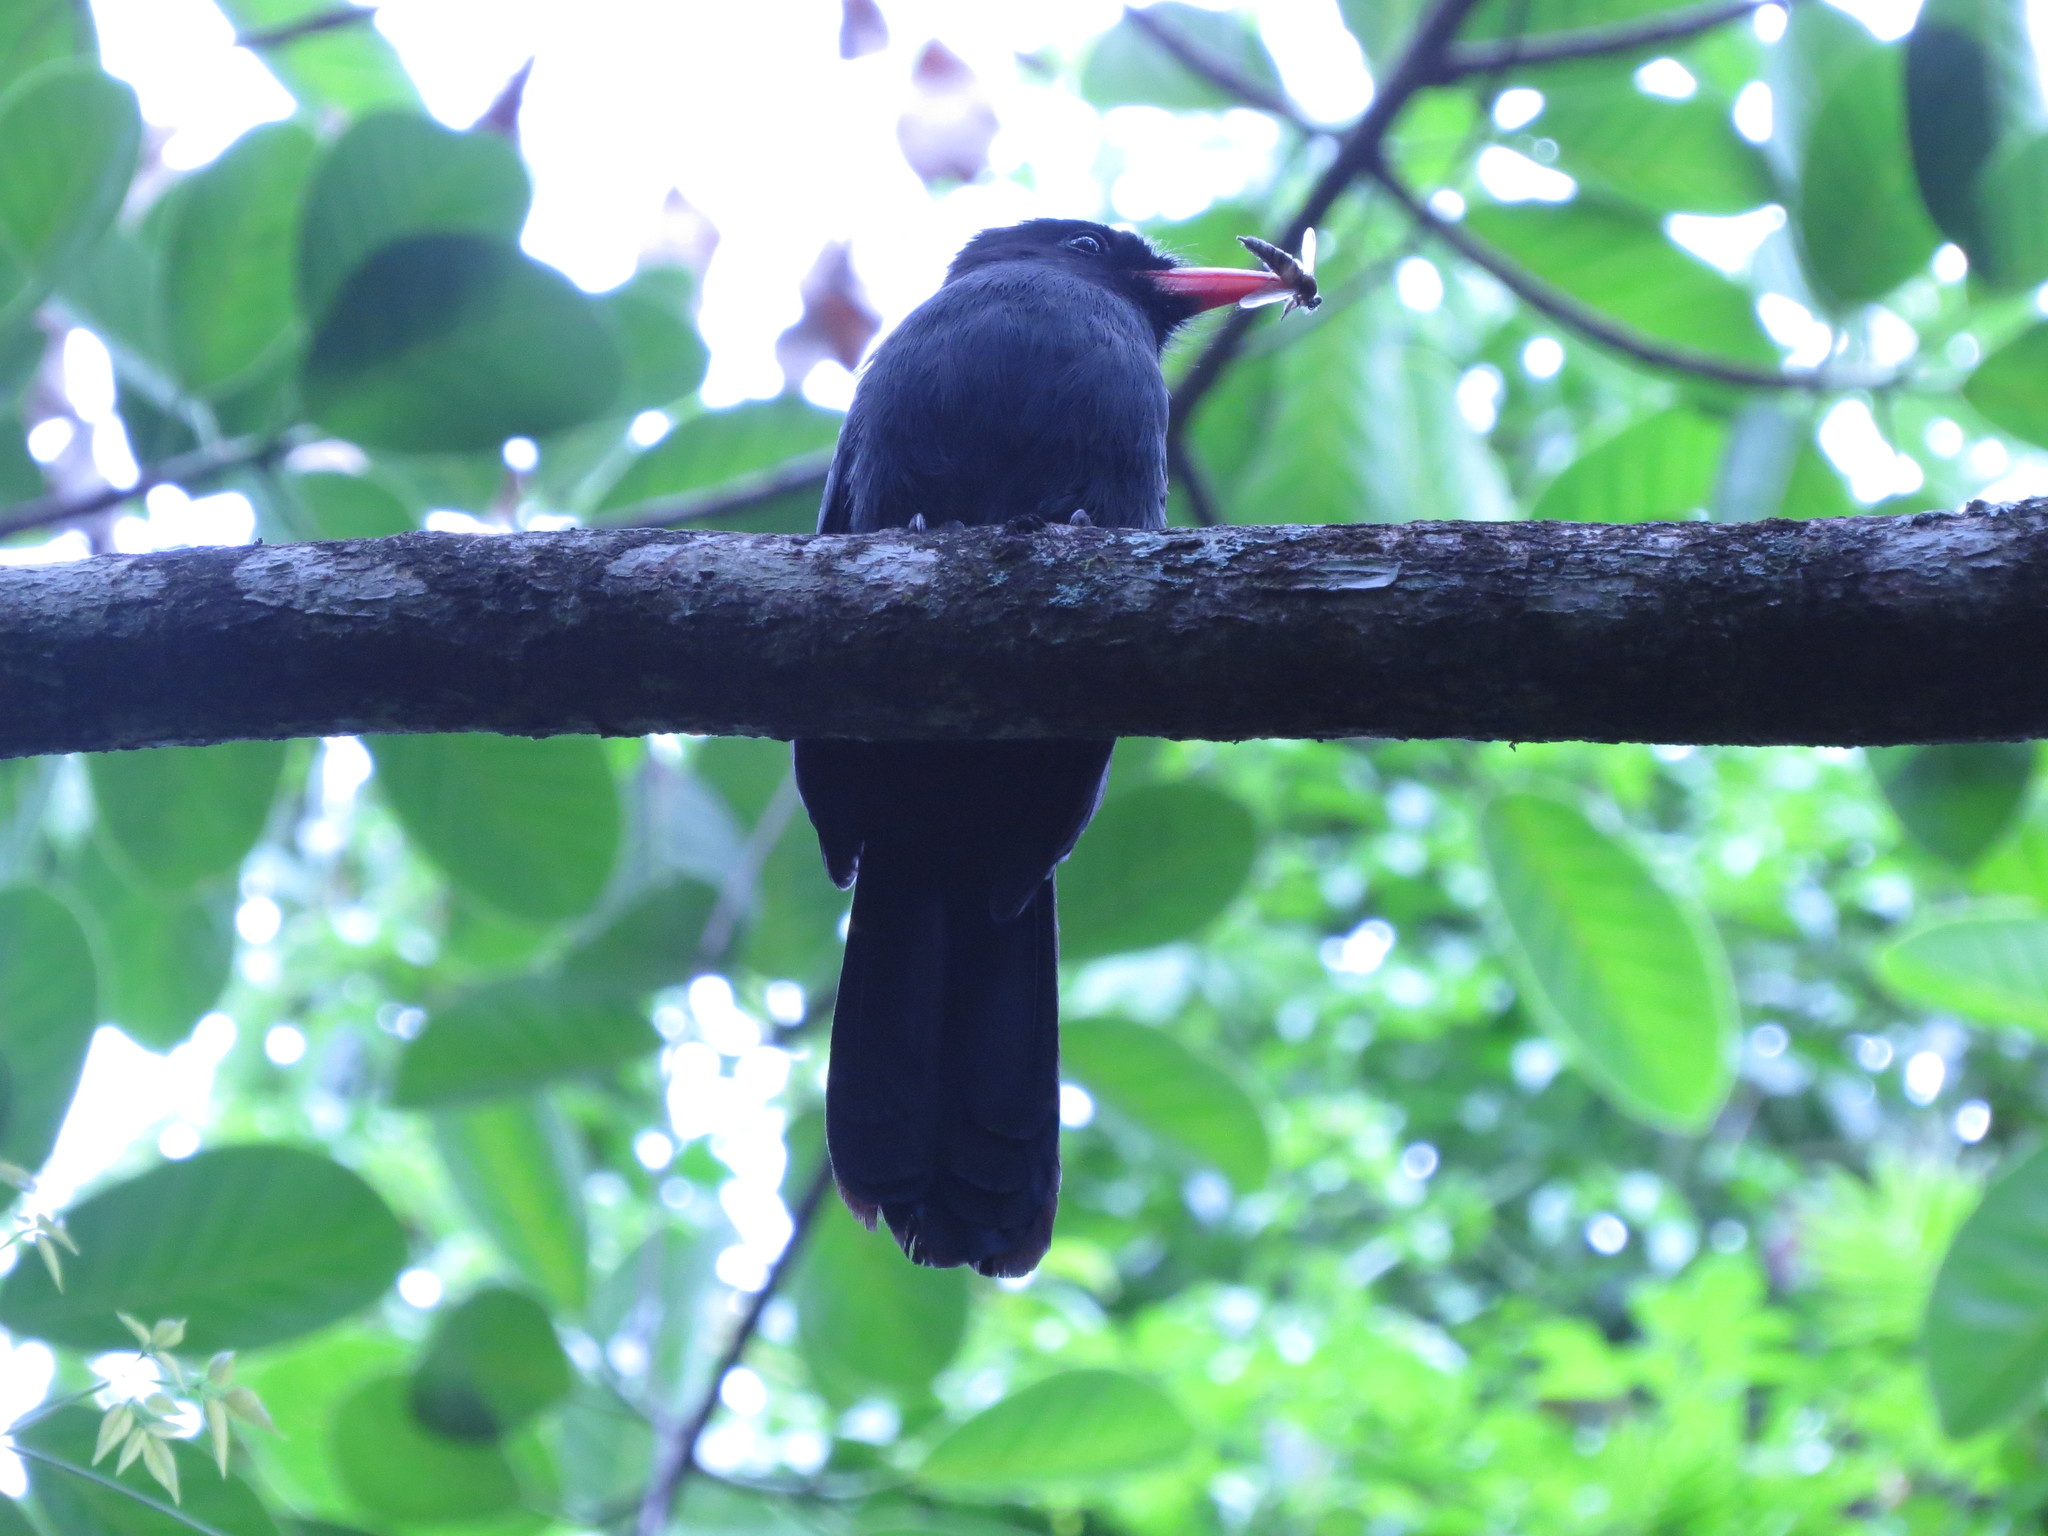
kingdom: Animalia
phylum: Chordata
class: Aves
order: Piciformes
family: Bucconidae
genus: Monasa
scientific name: Monasa nigrifrons
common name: Black-fronted nunbird
